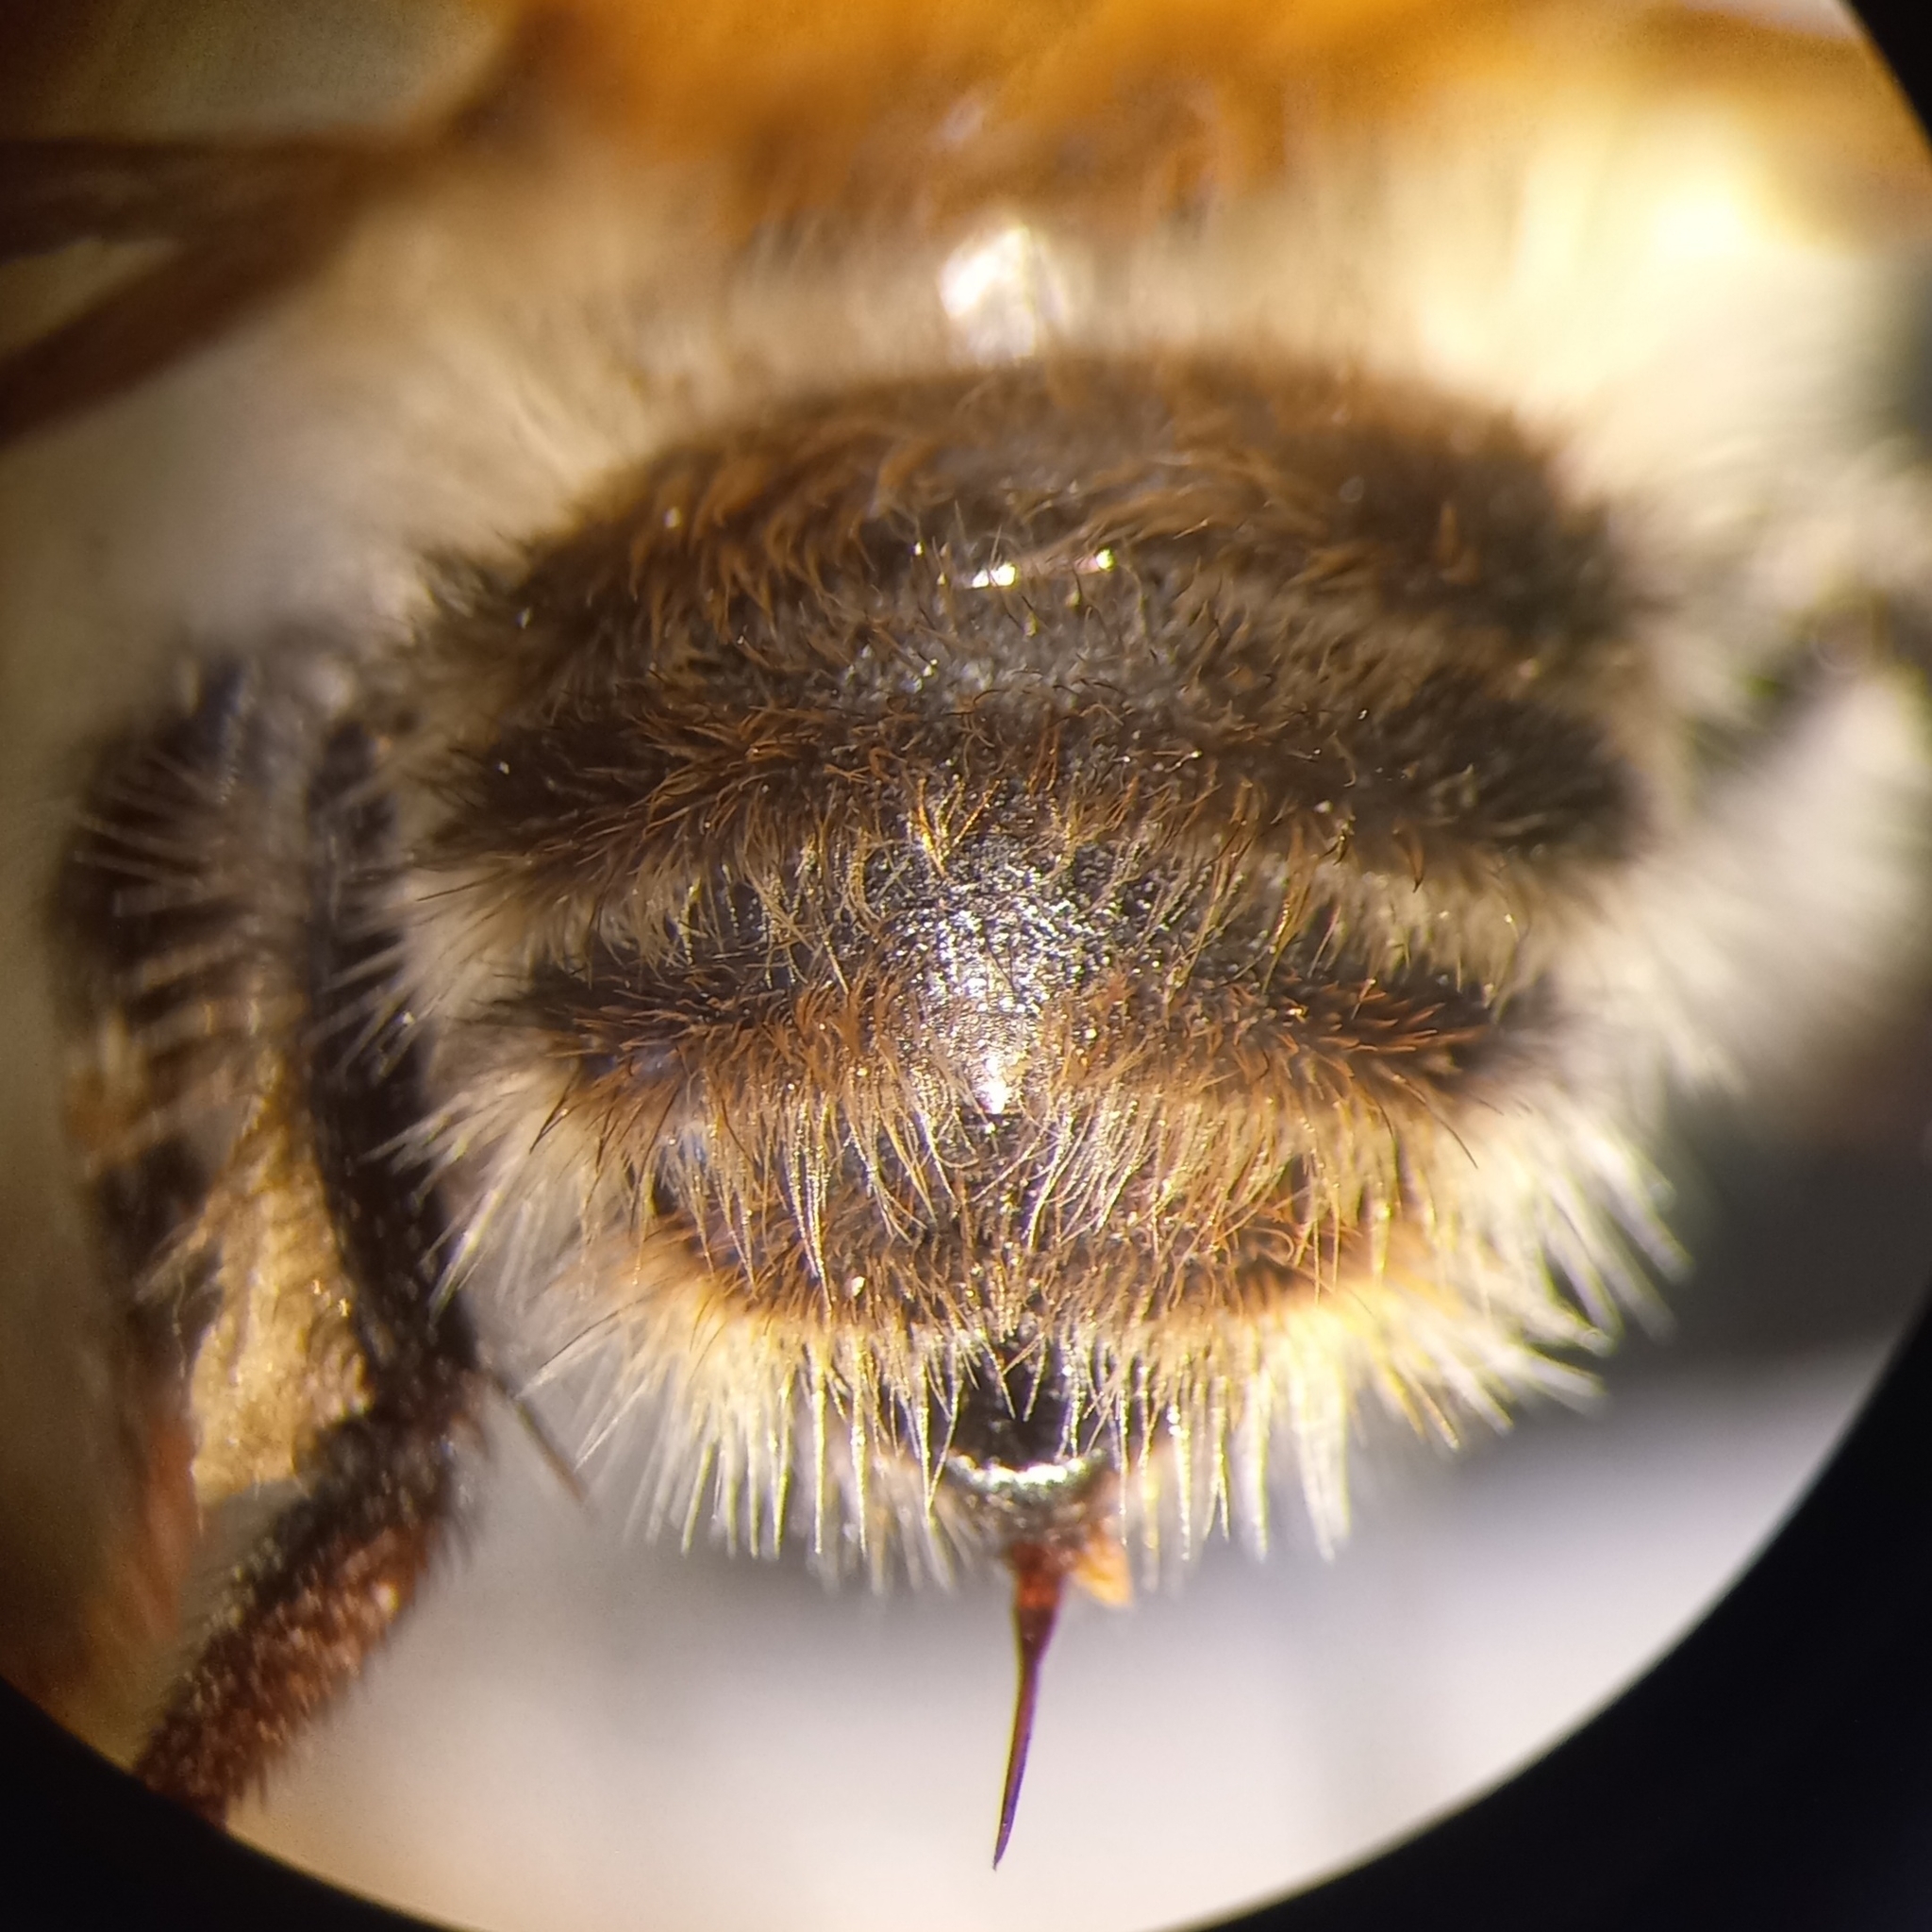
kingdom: Animalia
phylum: Arthropoda
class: Insecta
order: Hymenoptera
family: Apidae
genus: Bombus
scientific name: Bombus pascuorum
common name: Common carder bee
